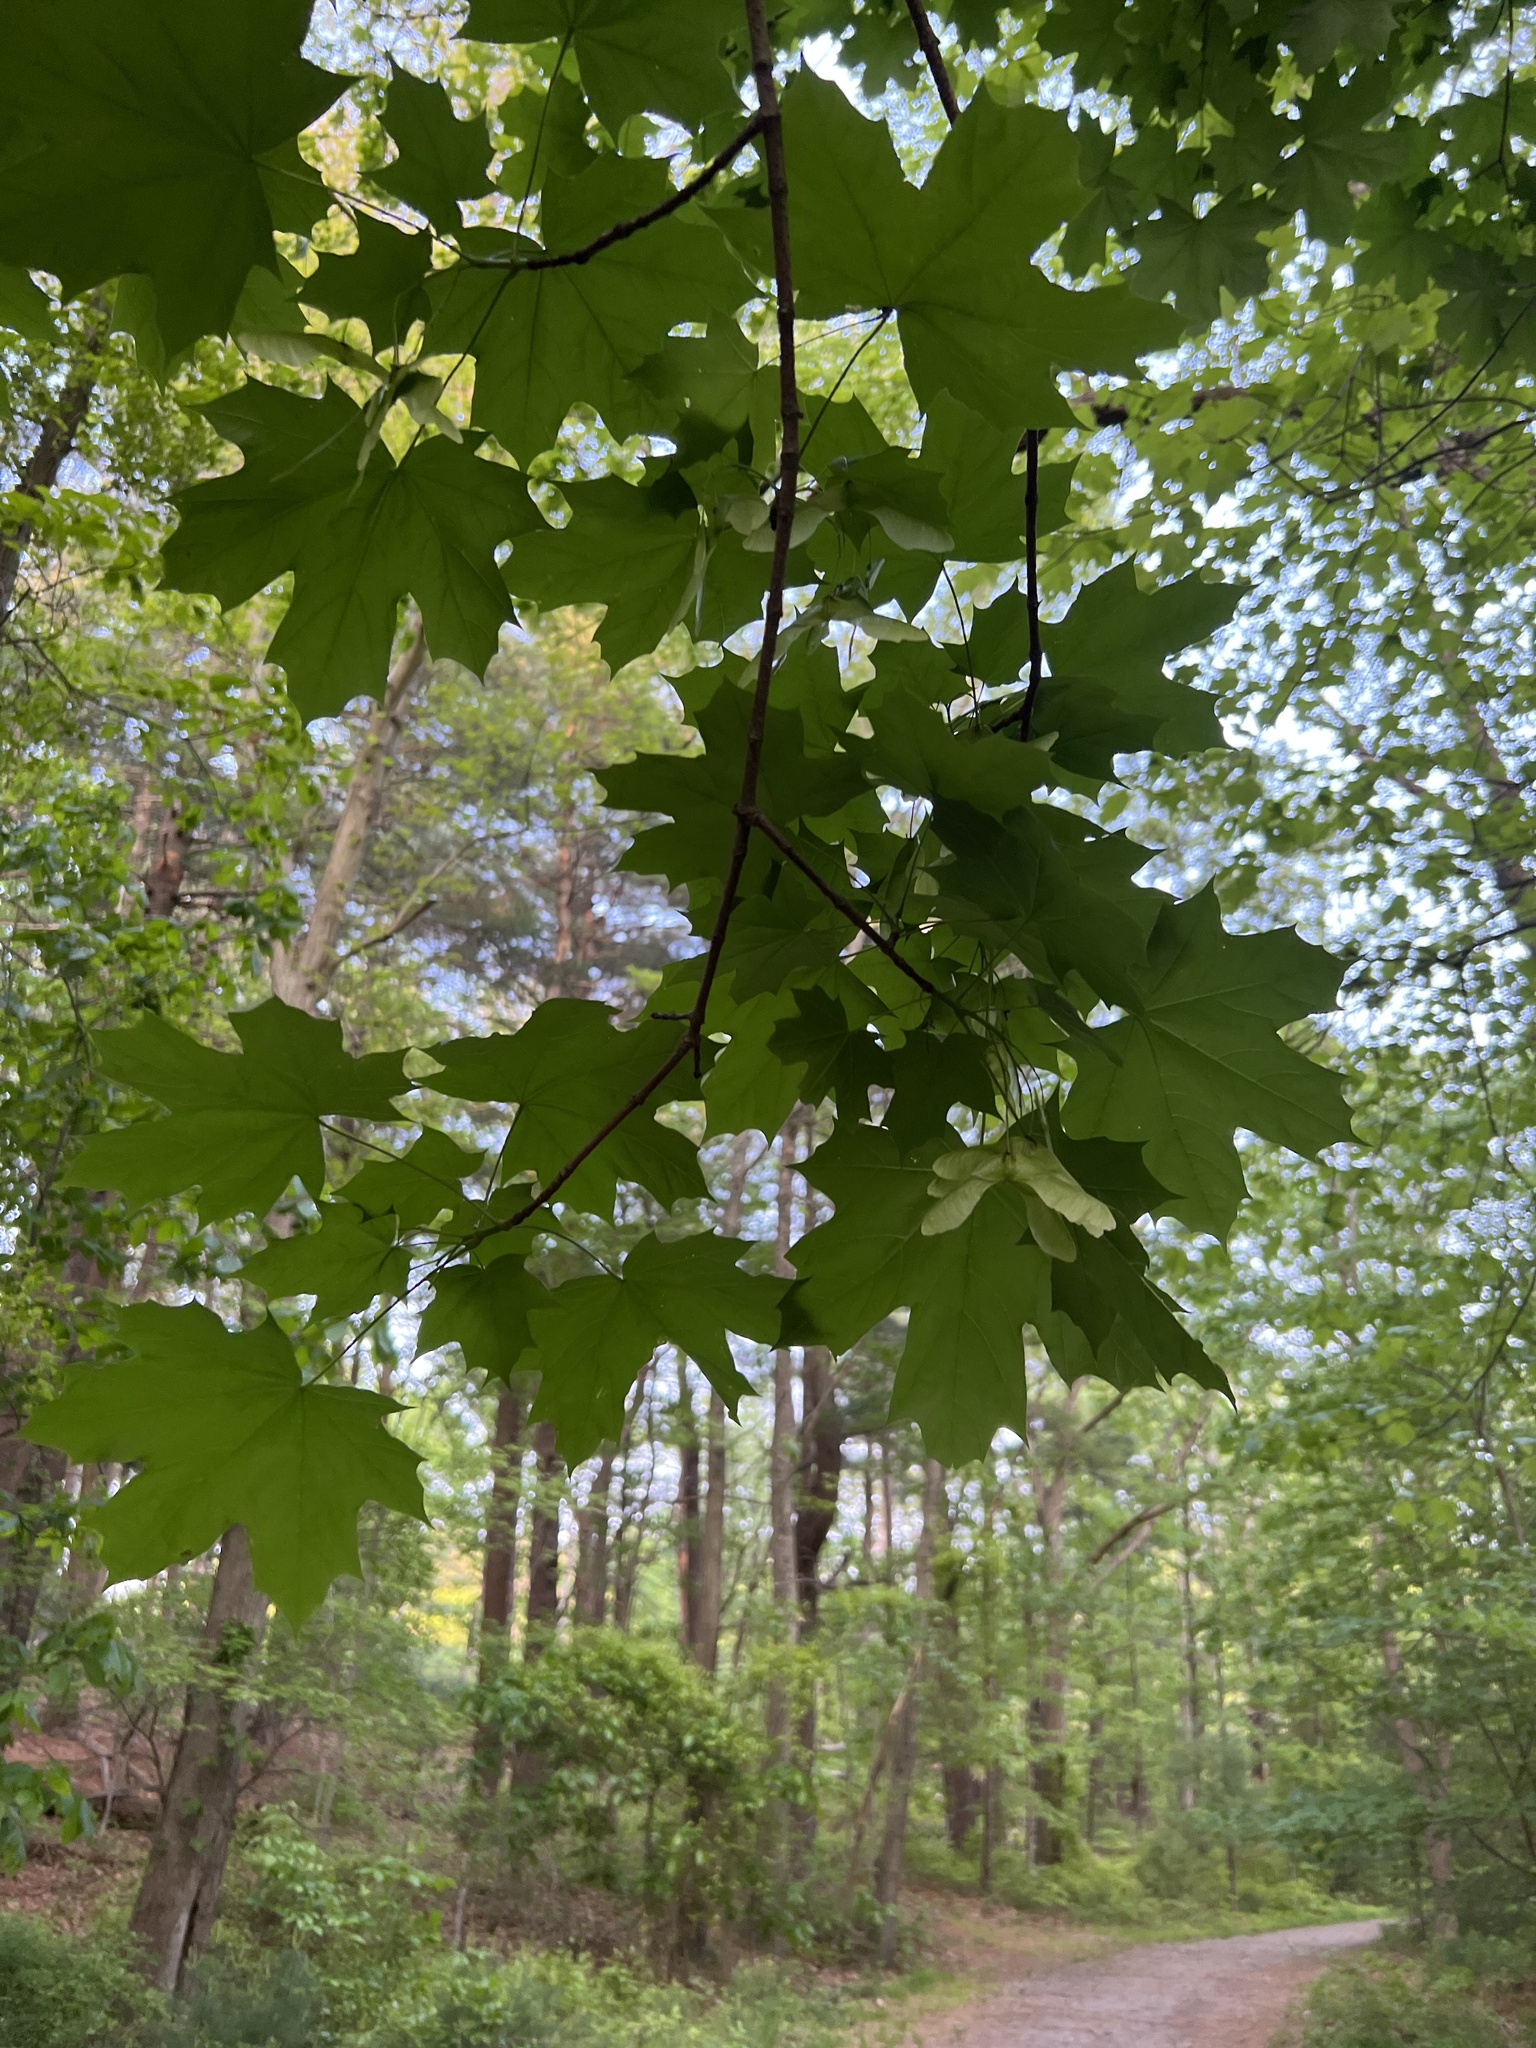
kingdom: Plantae
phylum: Tracheophyta
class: Magnoliopsida
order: Sapindales
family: Sapindaceae
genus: Acer
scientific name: Acer platanoides
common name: Norway maple
